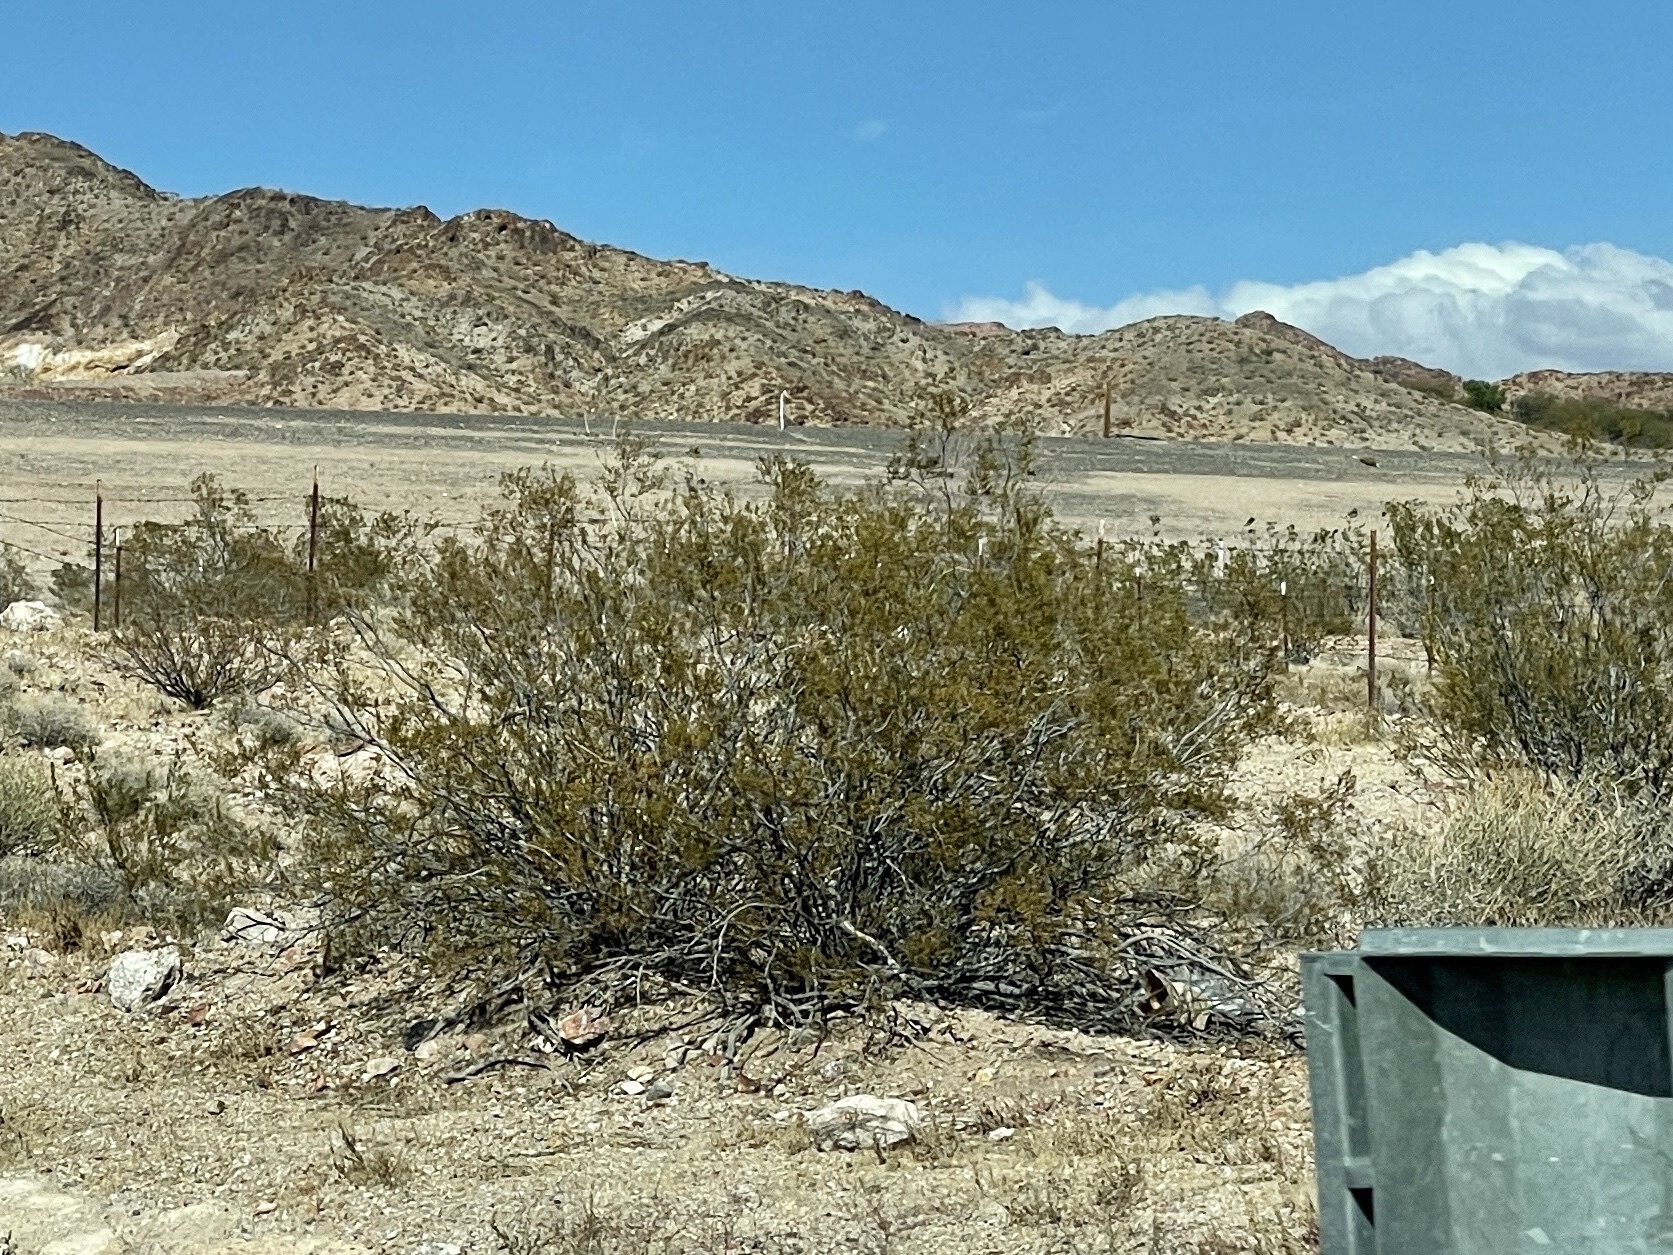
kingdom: Plantae
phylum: Tracheophyta
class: Magnoliopsida
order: Zygophyllales
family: Zygophyllaceae
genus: Larrea
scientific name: Larrea tridentata
